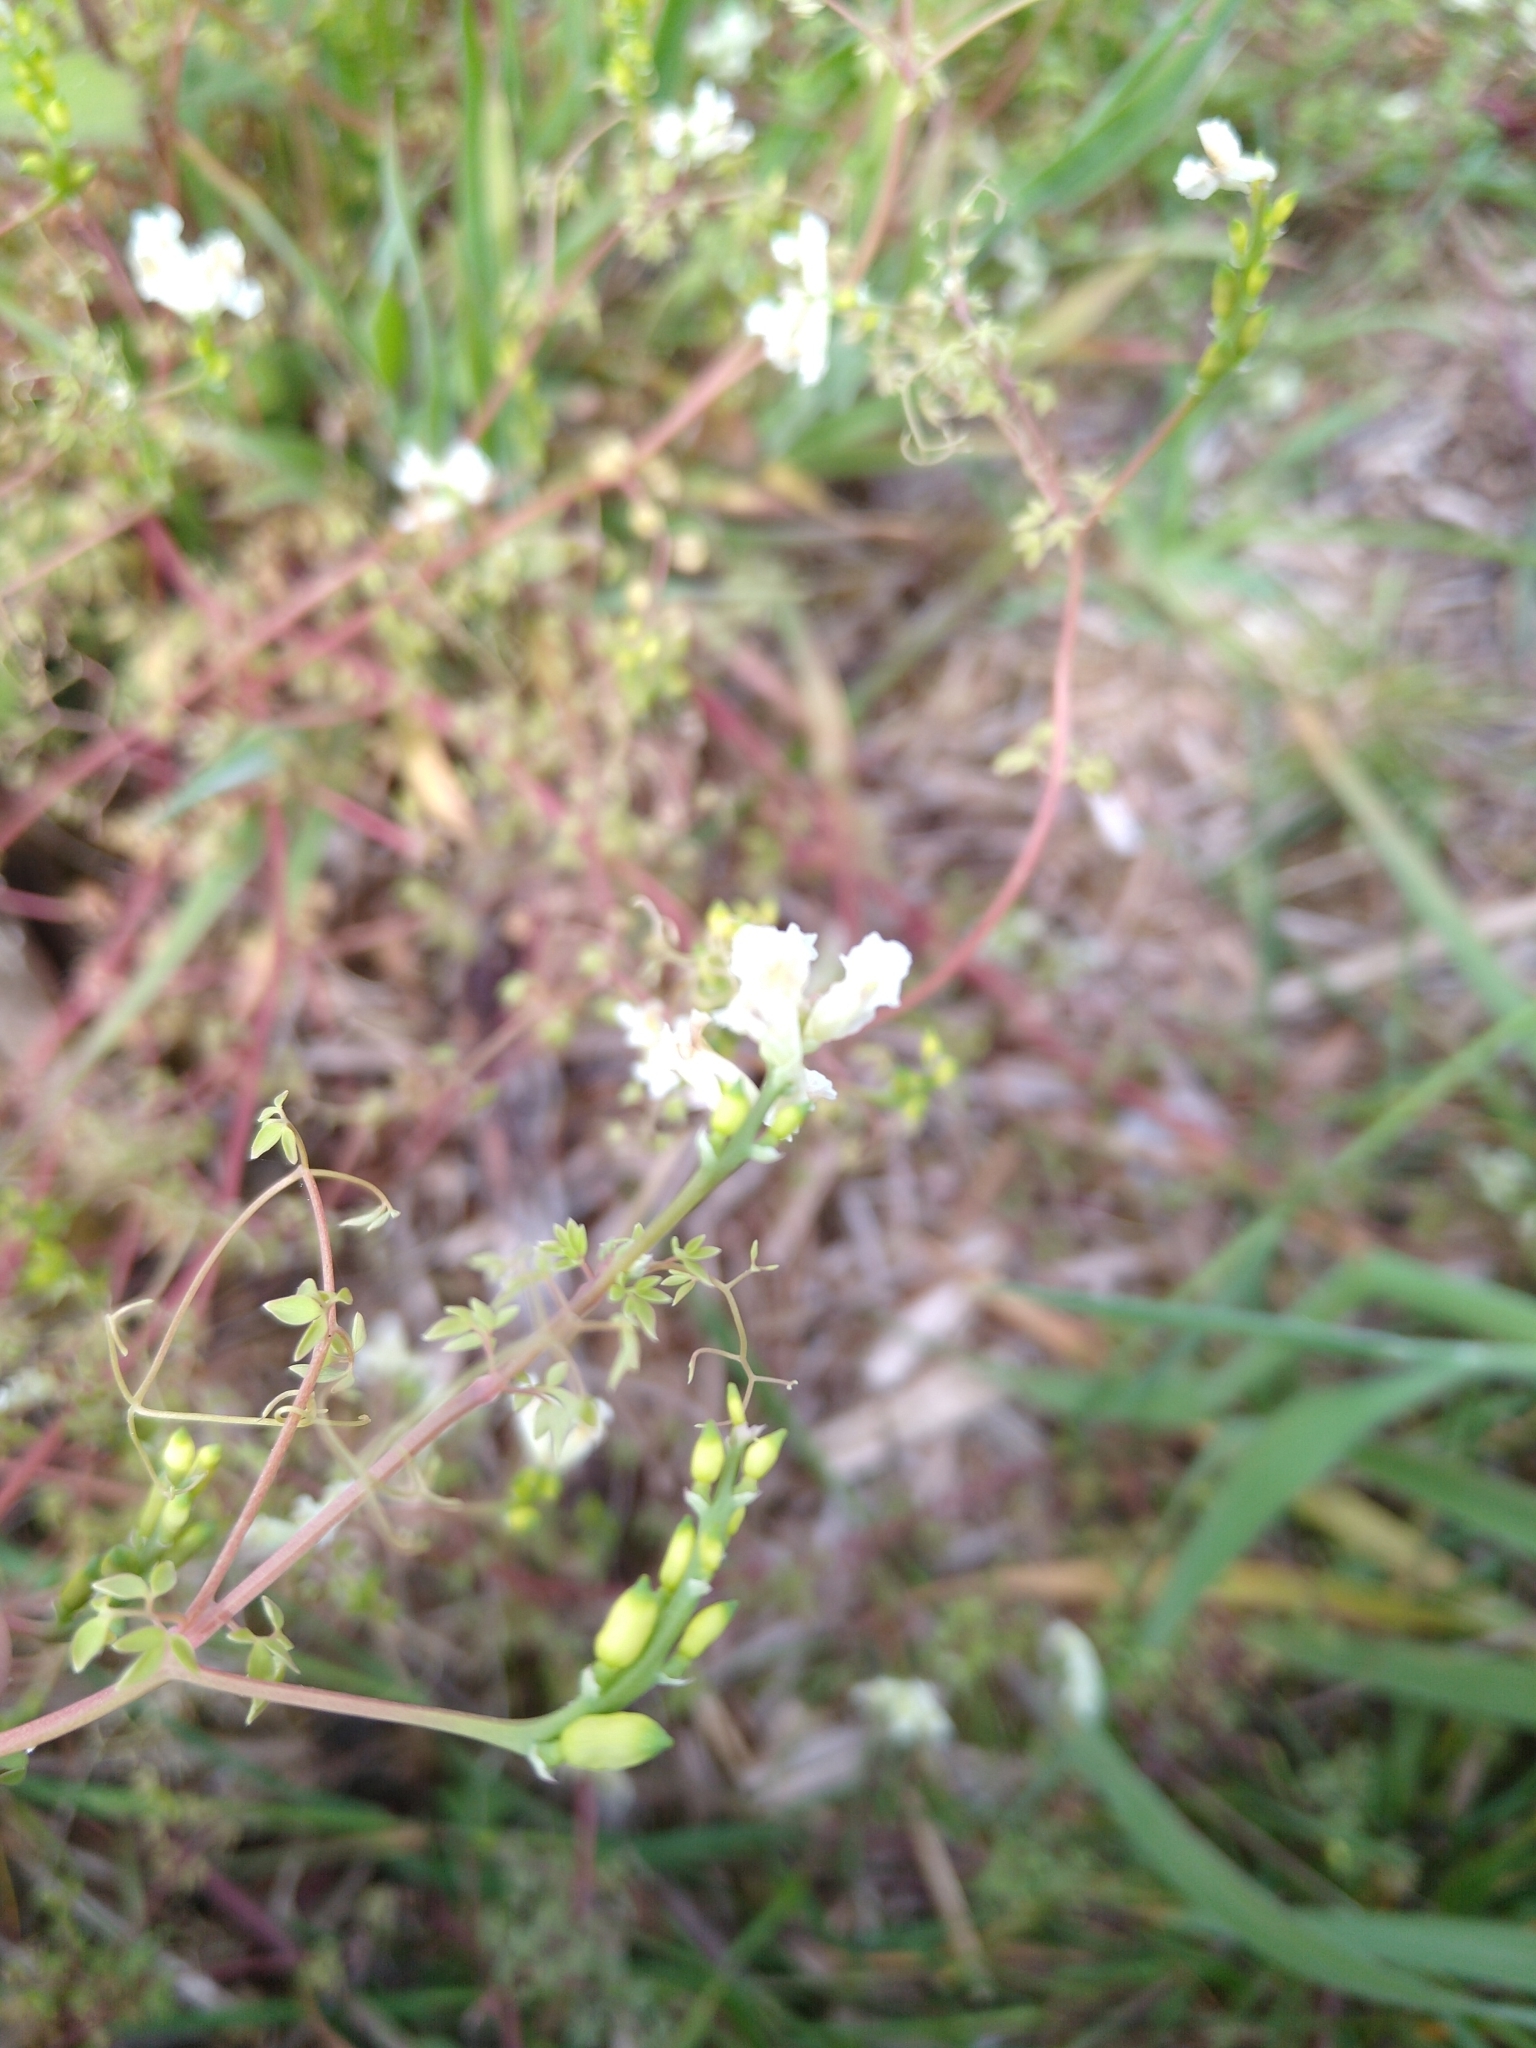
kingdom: Plantae
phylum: Tracheophyta
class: Magnoliopsida
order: Ranunculales
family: Papaveraceae
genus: Ceratocapnos
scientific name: Ceratocapnos claviculata
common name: Climbing corydalis
